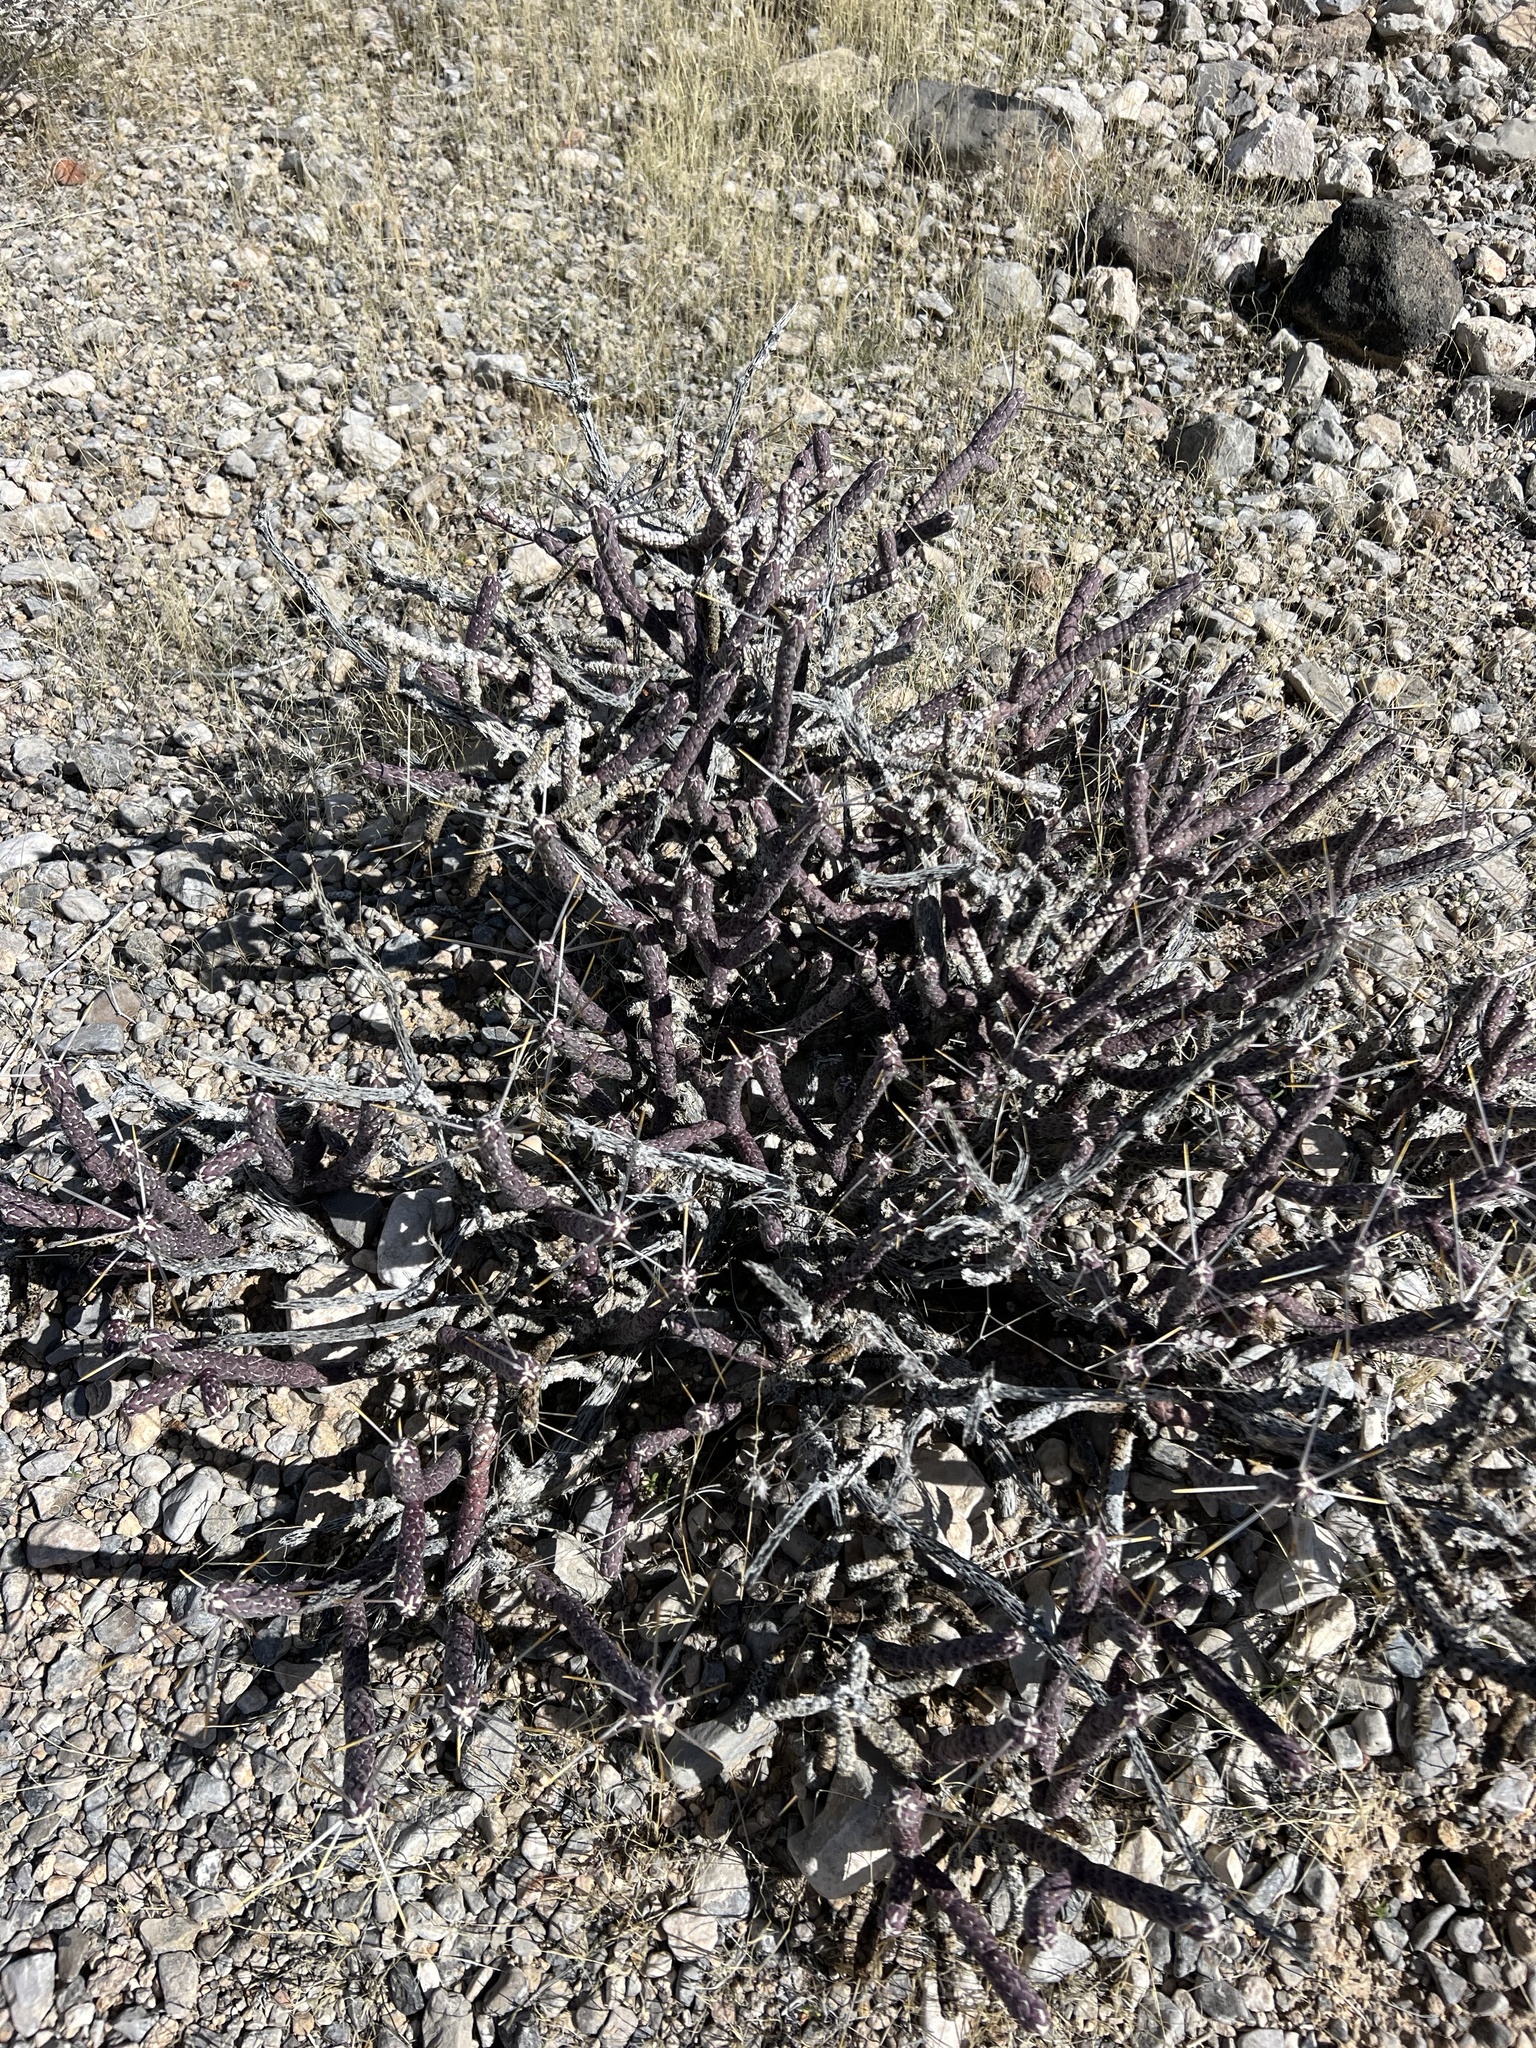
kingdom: Plantae
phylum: Tracheophyta
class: Magnoliopsida
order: Caryophyllales
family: Cactaceae
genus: Cylindropuntia
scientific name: Cylindropuntia ramosissima
